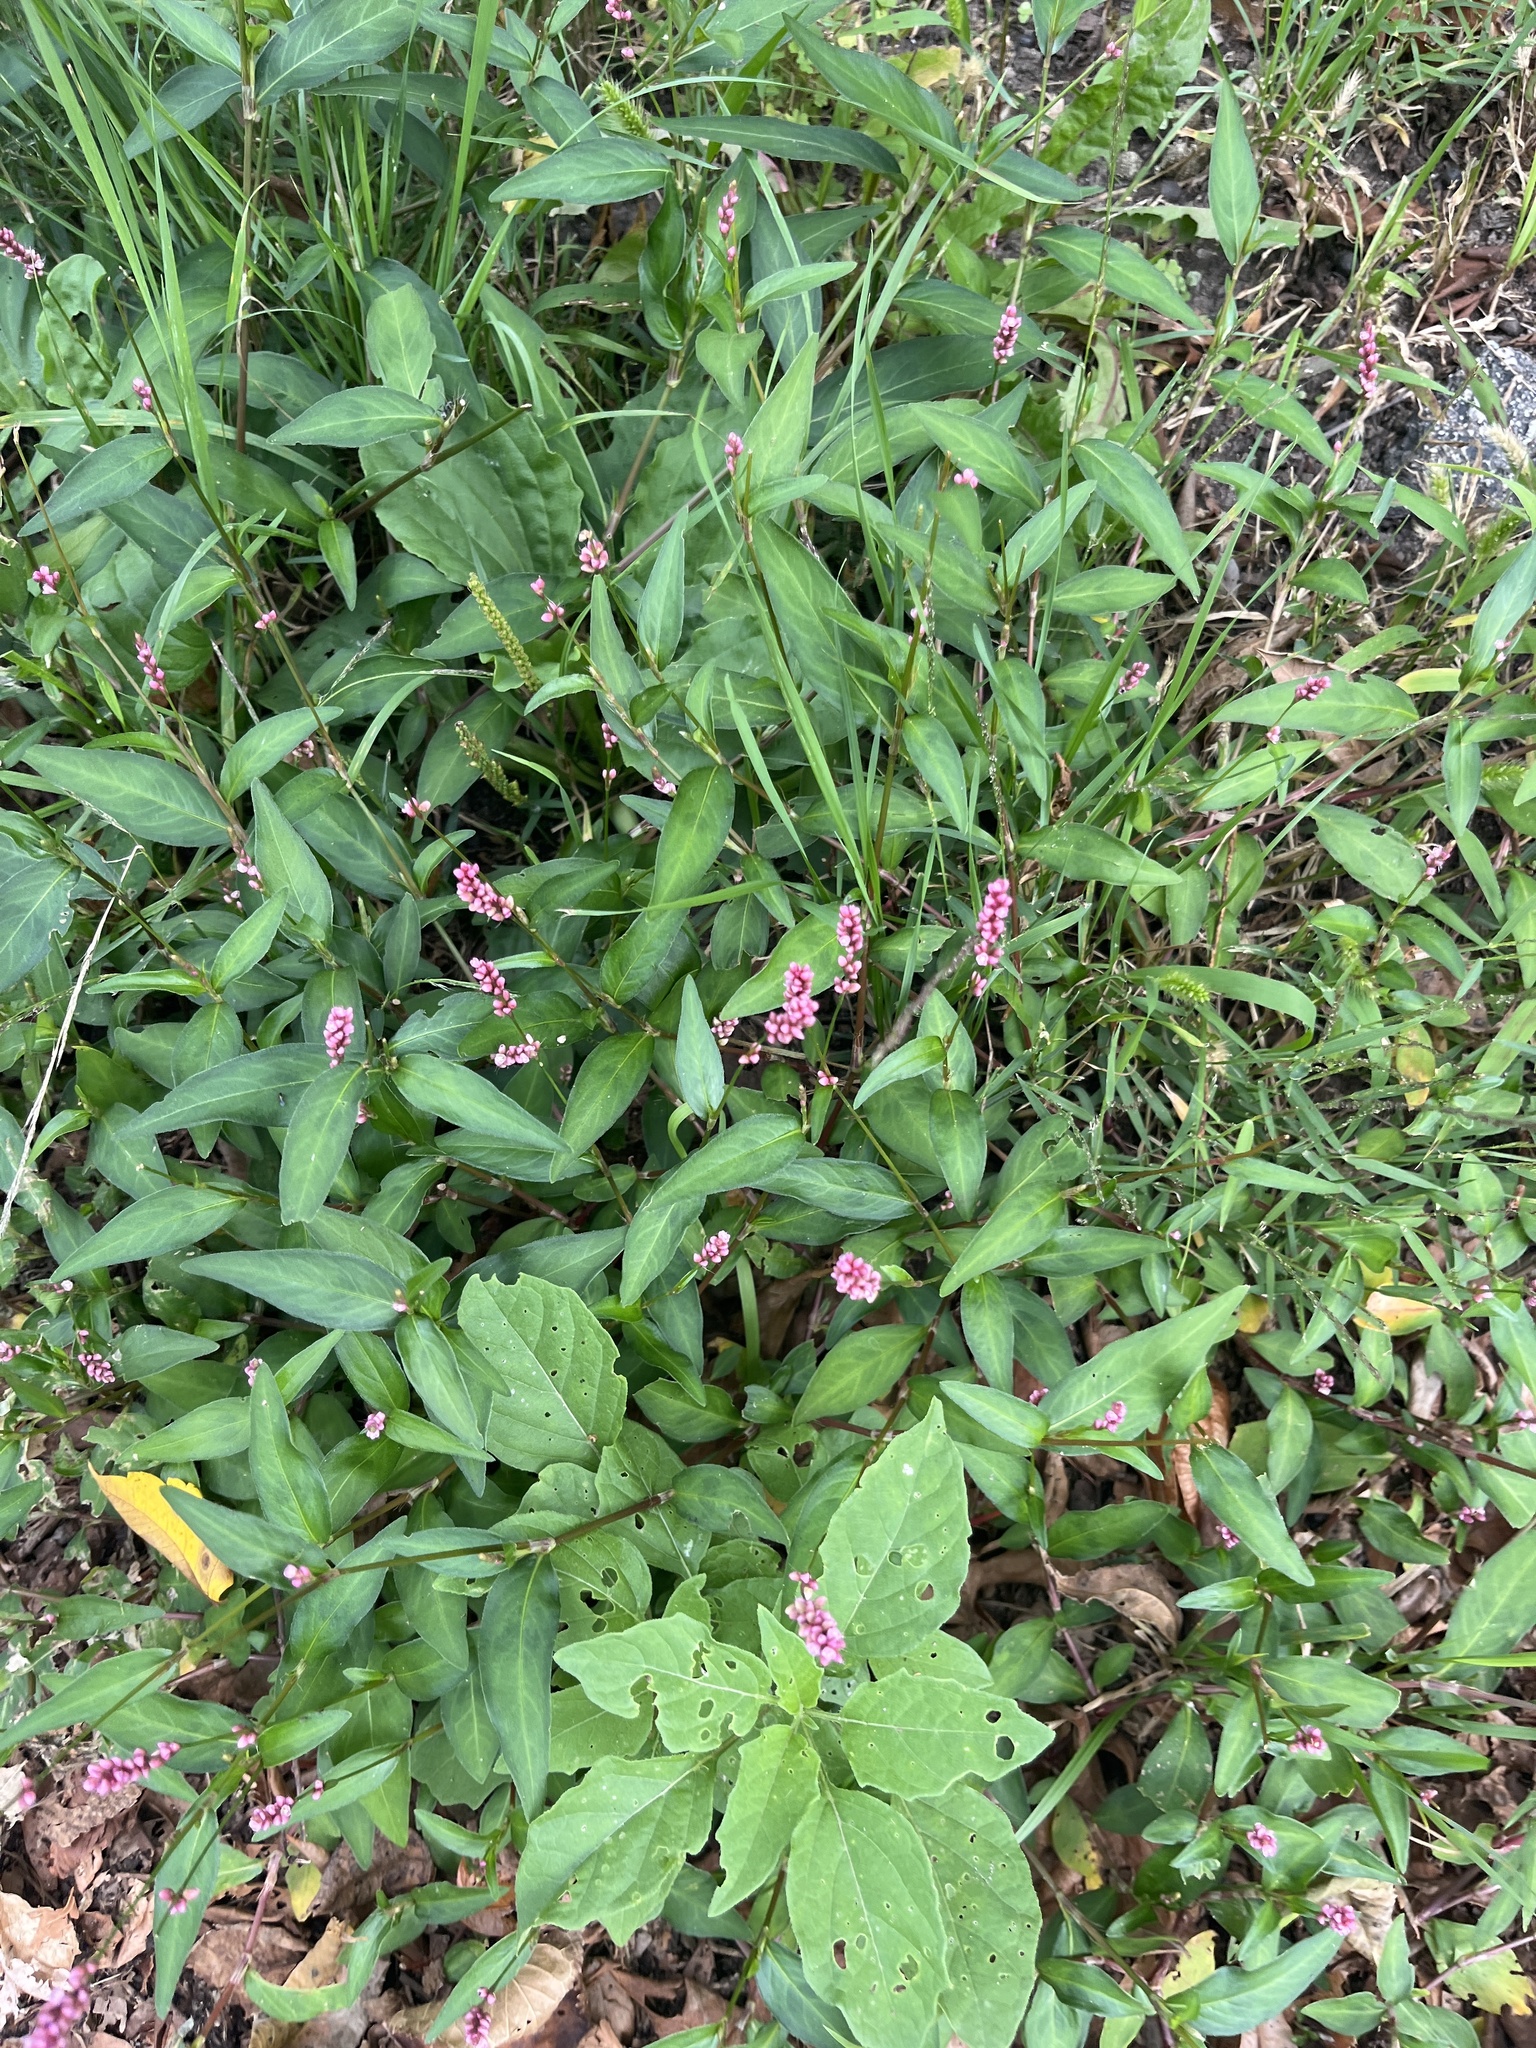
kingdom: Plantae
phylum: Tracheophyta
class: Magnoliopsida
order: Caryophyllales
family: Polygonaceae
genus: Persicaria
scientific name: Persicaria longiseta
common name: Bristly lady's-thumb
